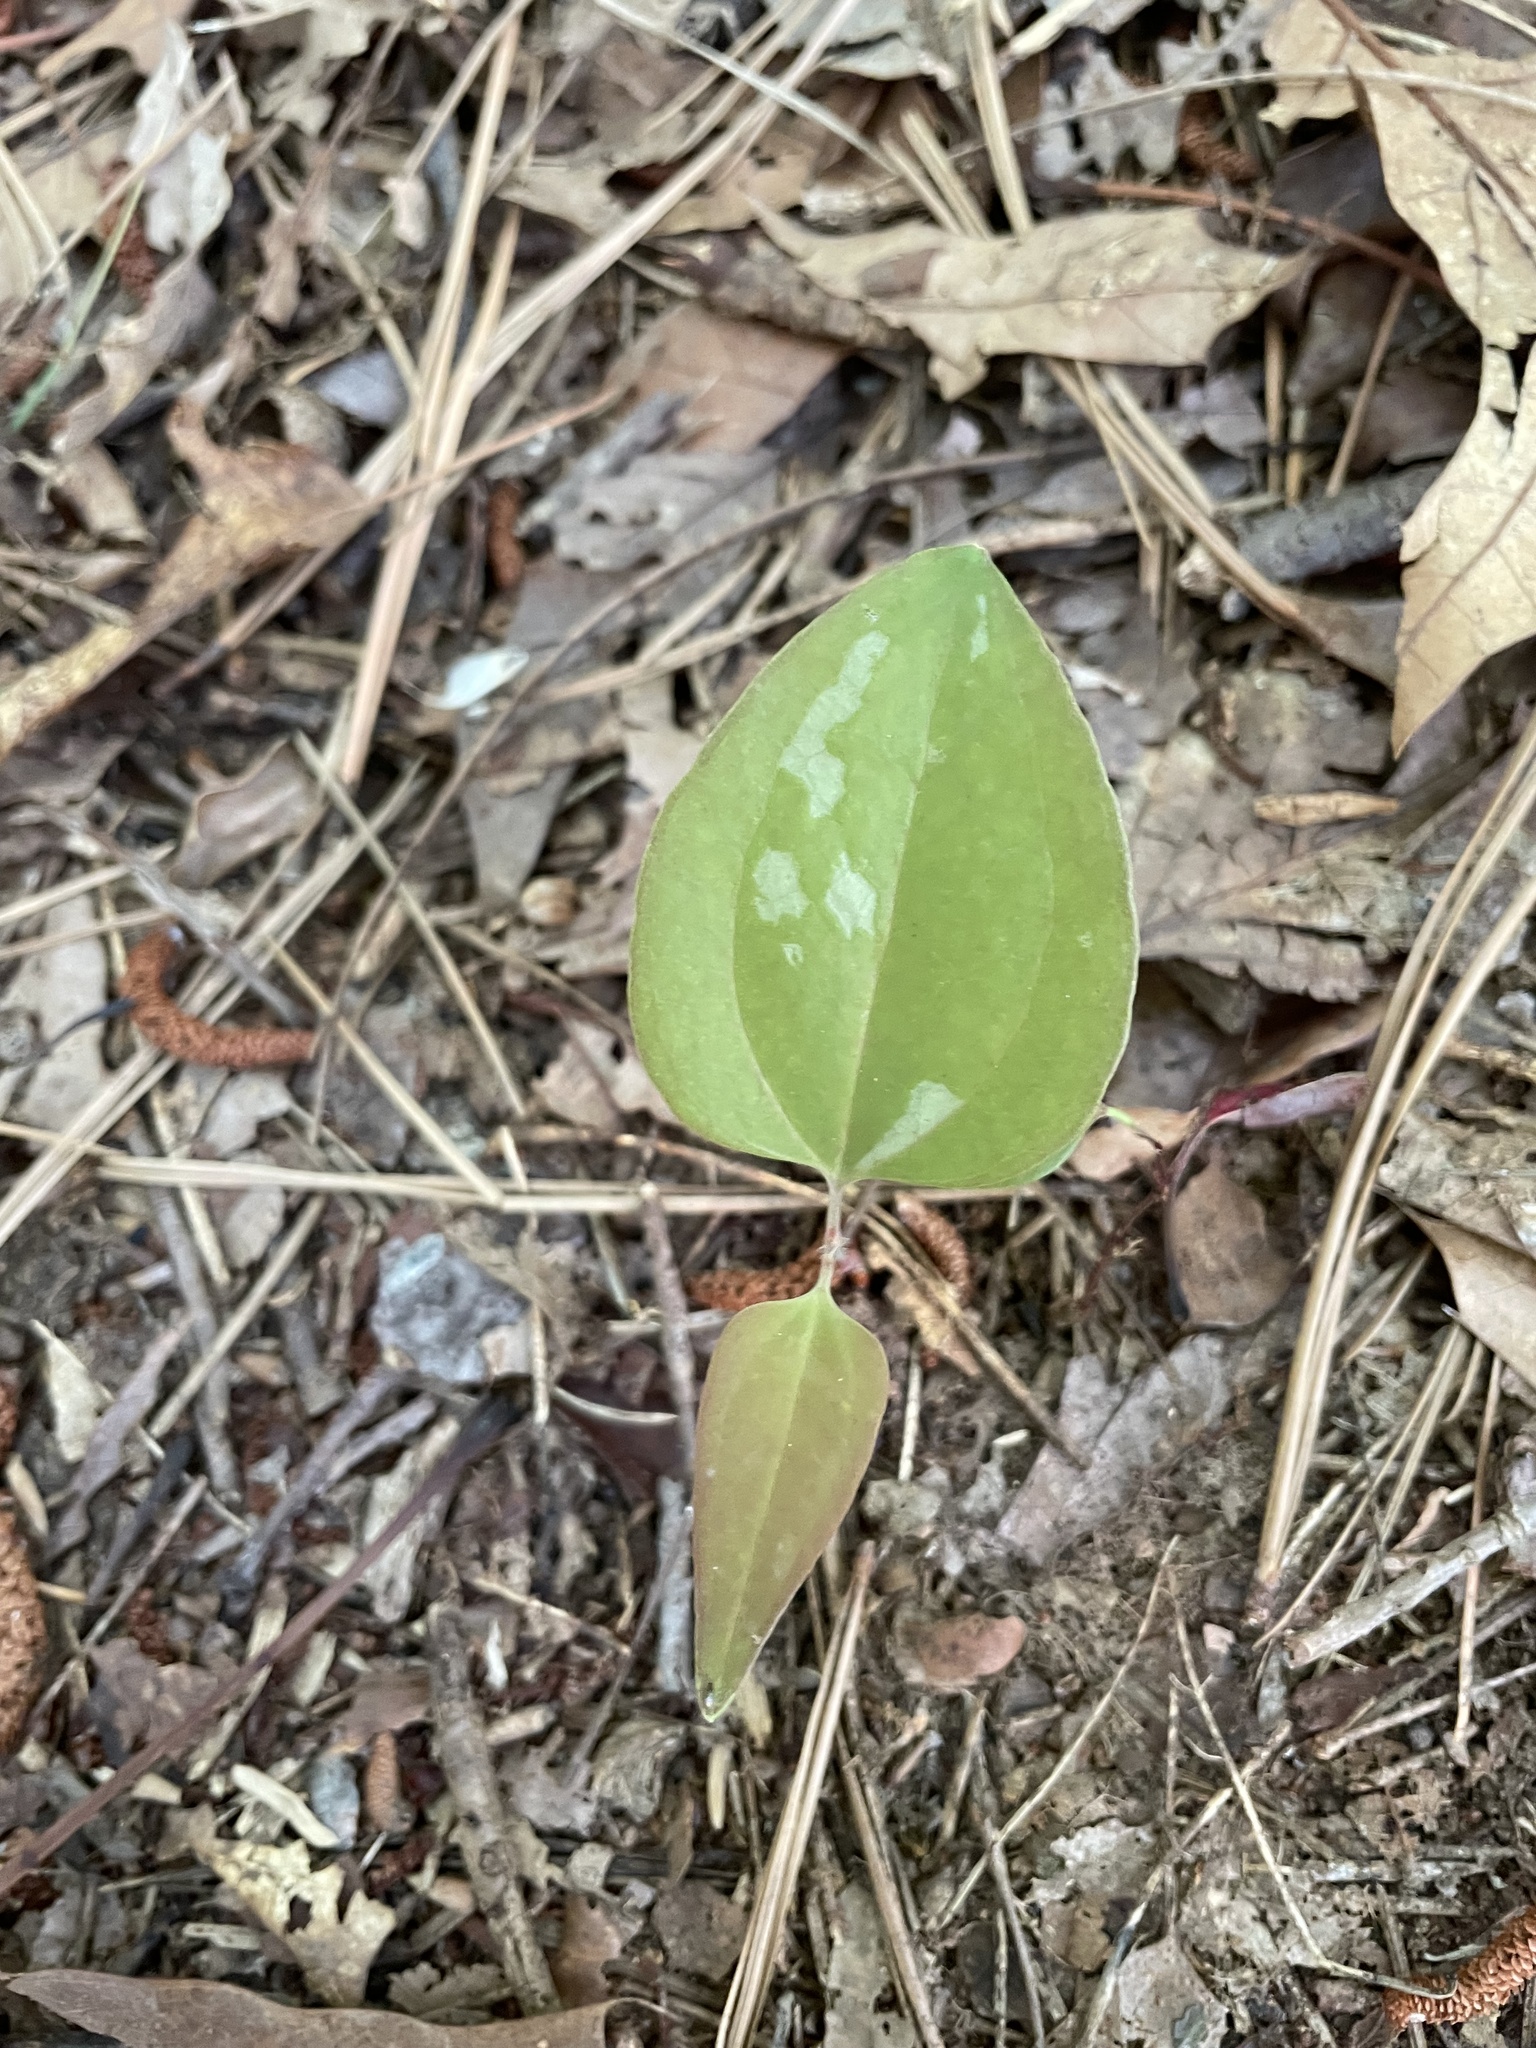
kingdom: Plantae
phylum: Tracheophyta
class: Liliopsida
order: Liliales
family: Smilacaceae
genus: Smilax
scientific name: Smilax glauca
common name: Cat greenbrier
